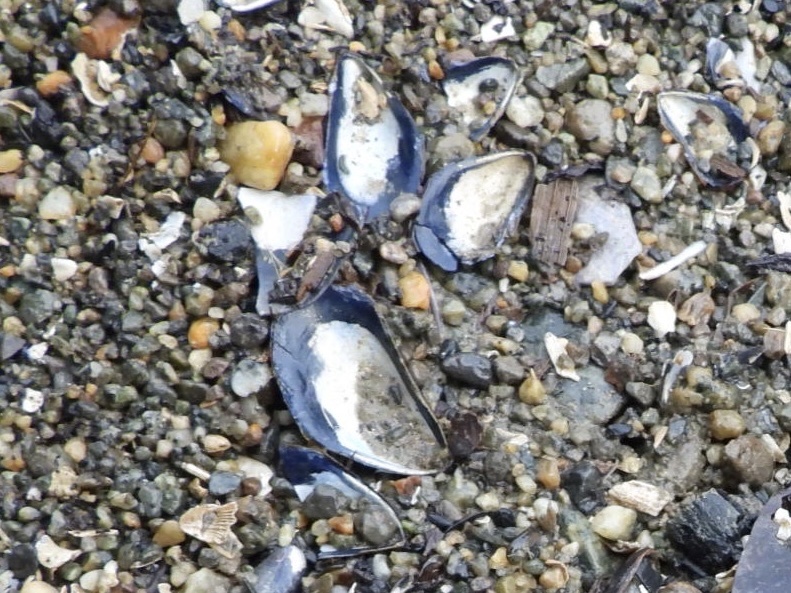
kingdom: Animalia
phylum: Mollusca
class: Bivalvia
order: Mytilida
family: Mytilidae
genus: Mytilus
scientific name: Mytilus
